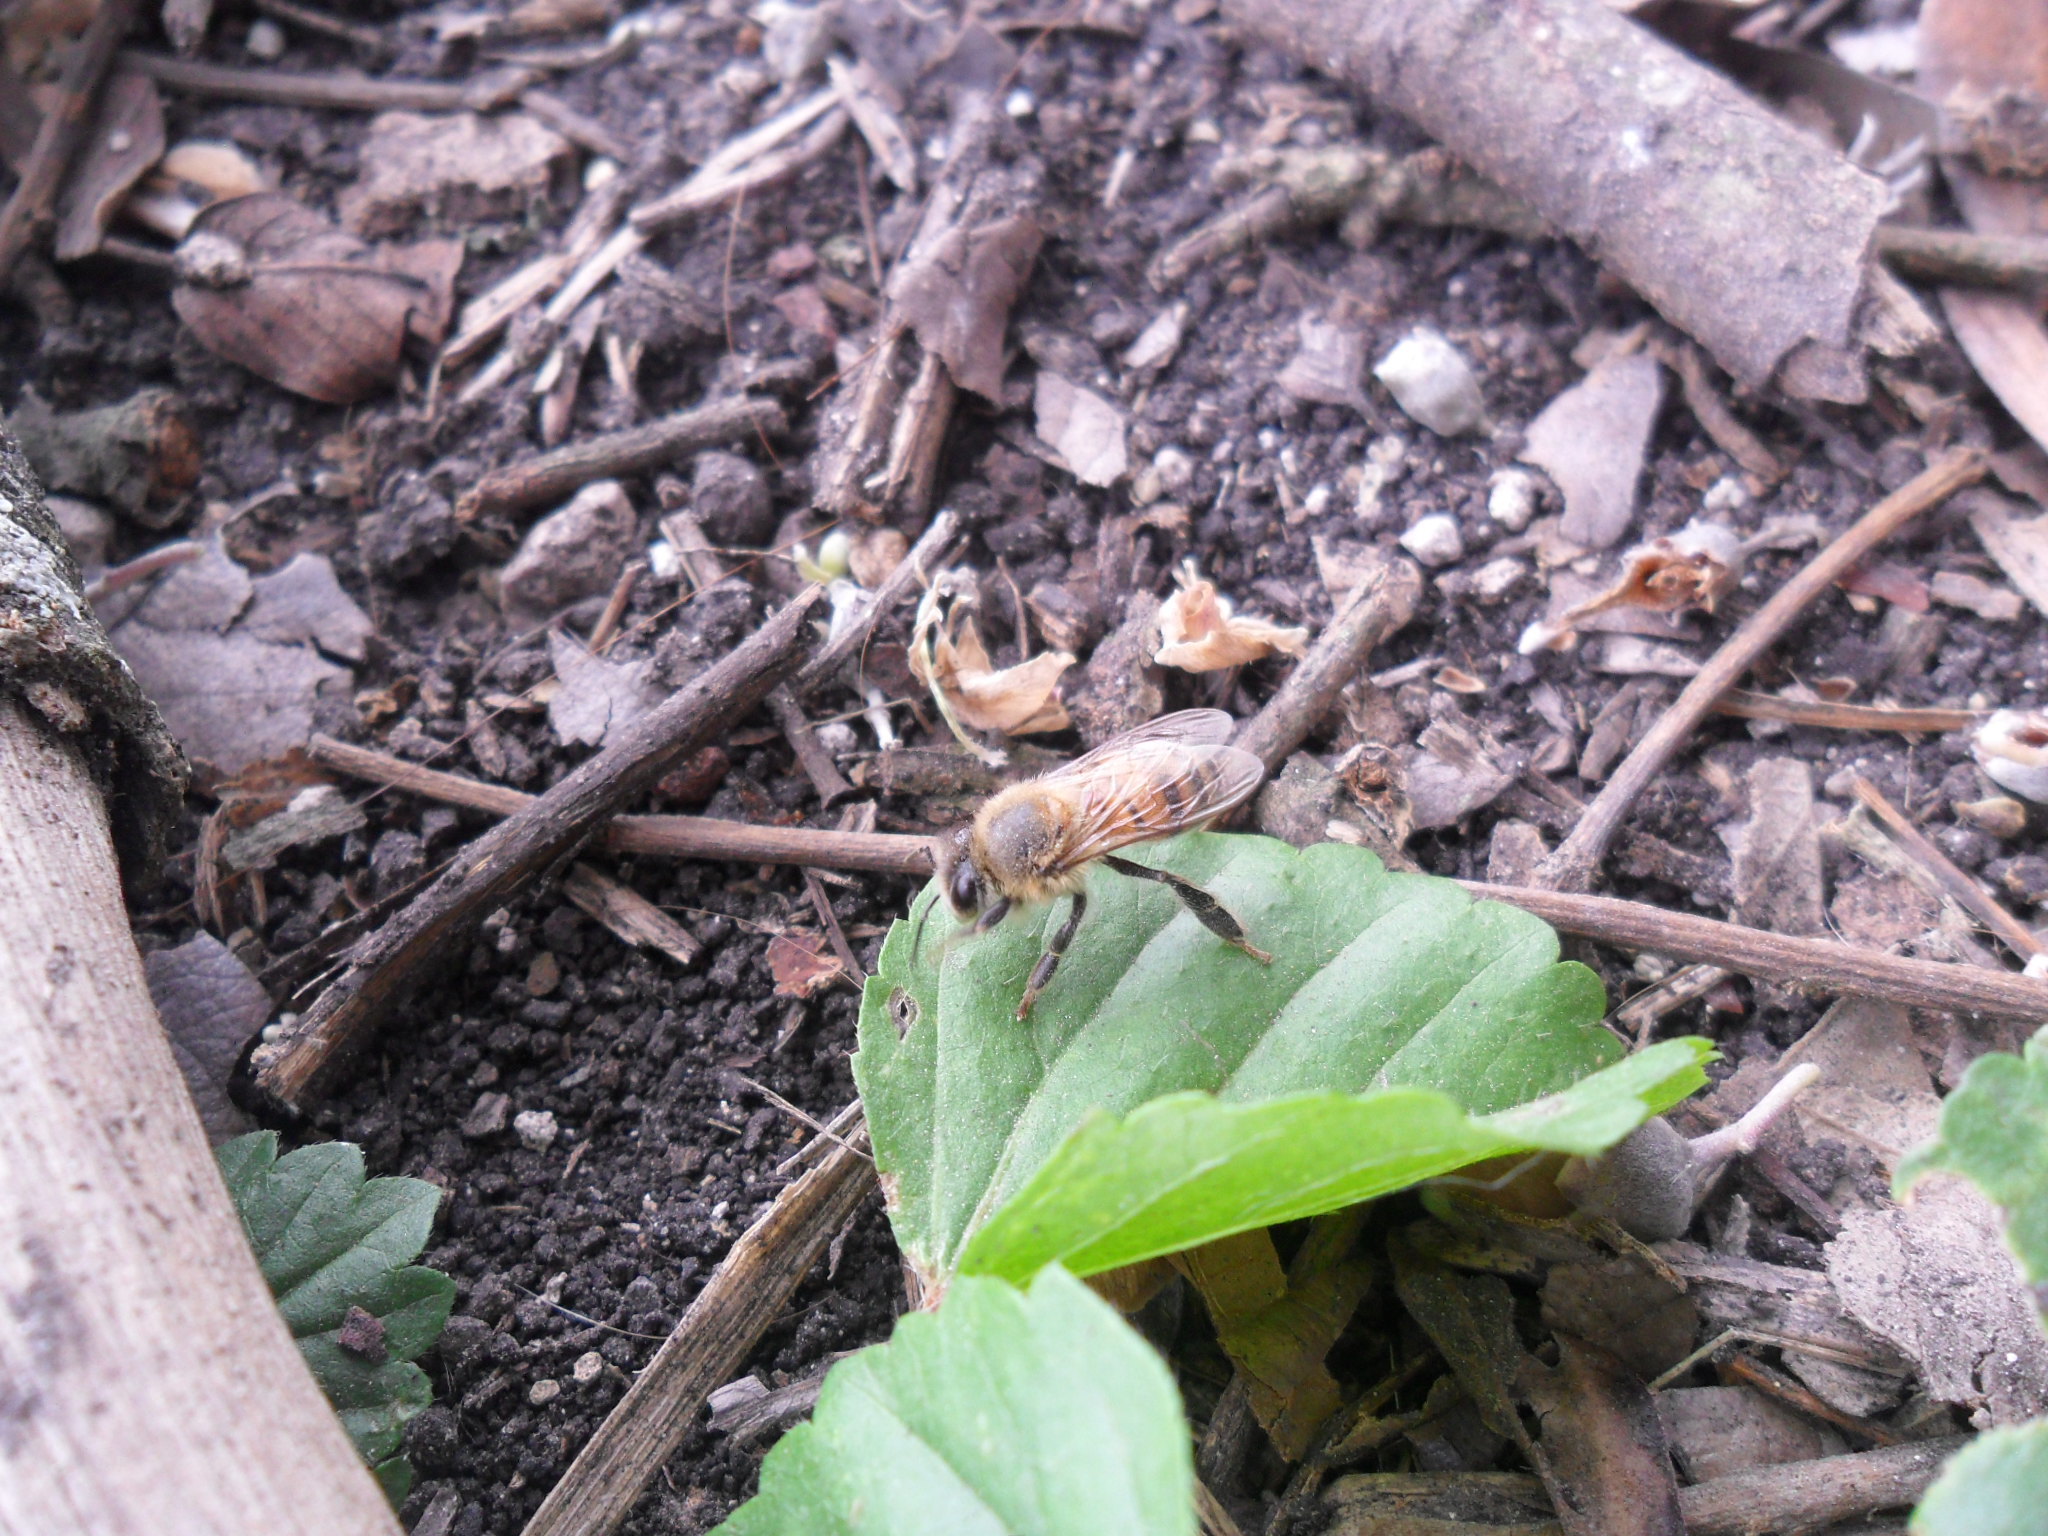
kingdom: Animalia
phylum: Arthropoda
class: Insecta
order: Hymenoptera
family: Apidae
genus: Apis
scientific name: Apis mellifera
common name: Honey bee
